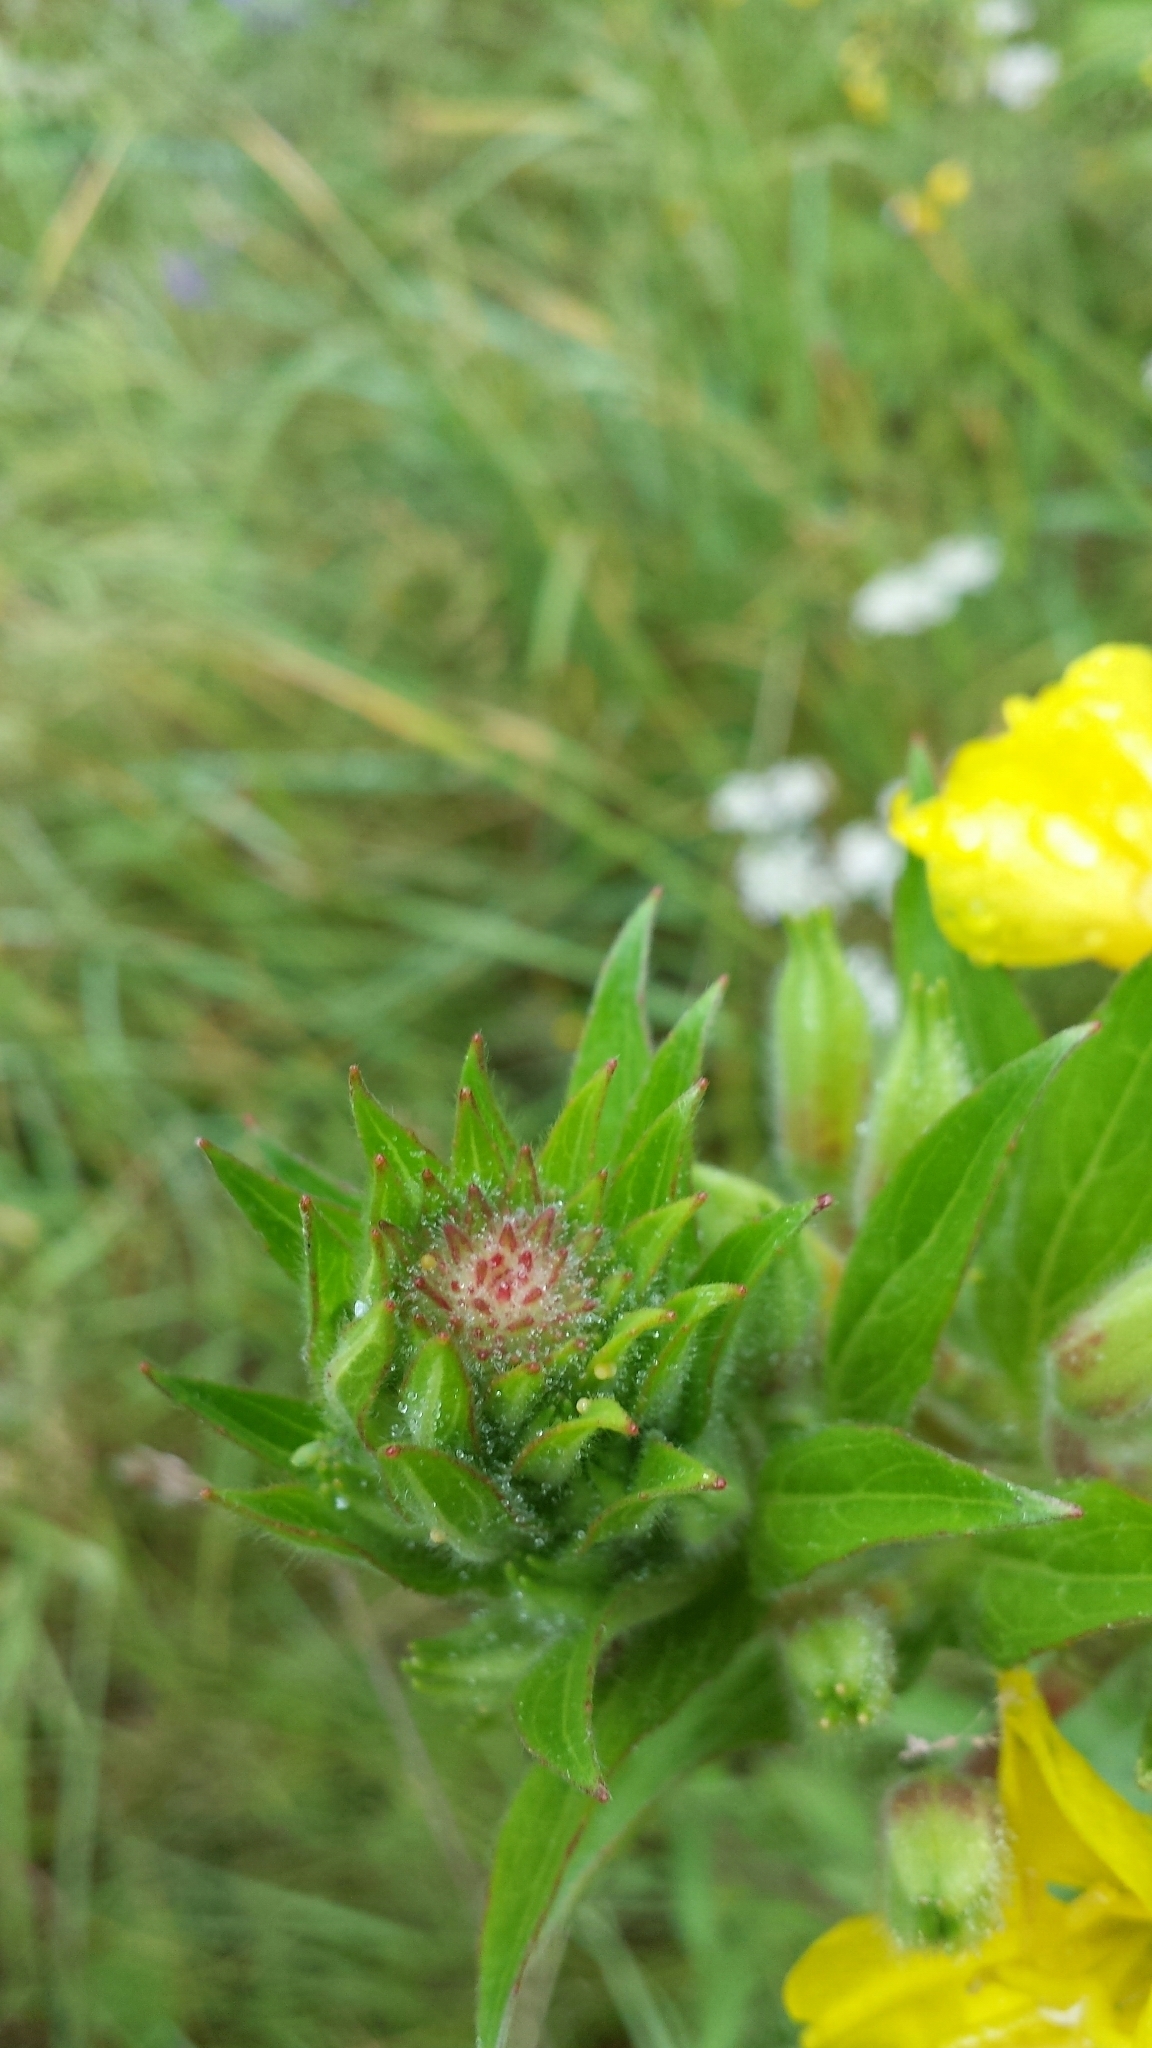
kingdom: Plantae
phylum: Tracheophyta
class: Magnoliopsida
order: Myrtales
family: Onagraceae
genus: Oenothera
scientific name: Oenothera biennis
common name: Common evening-primrose
